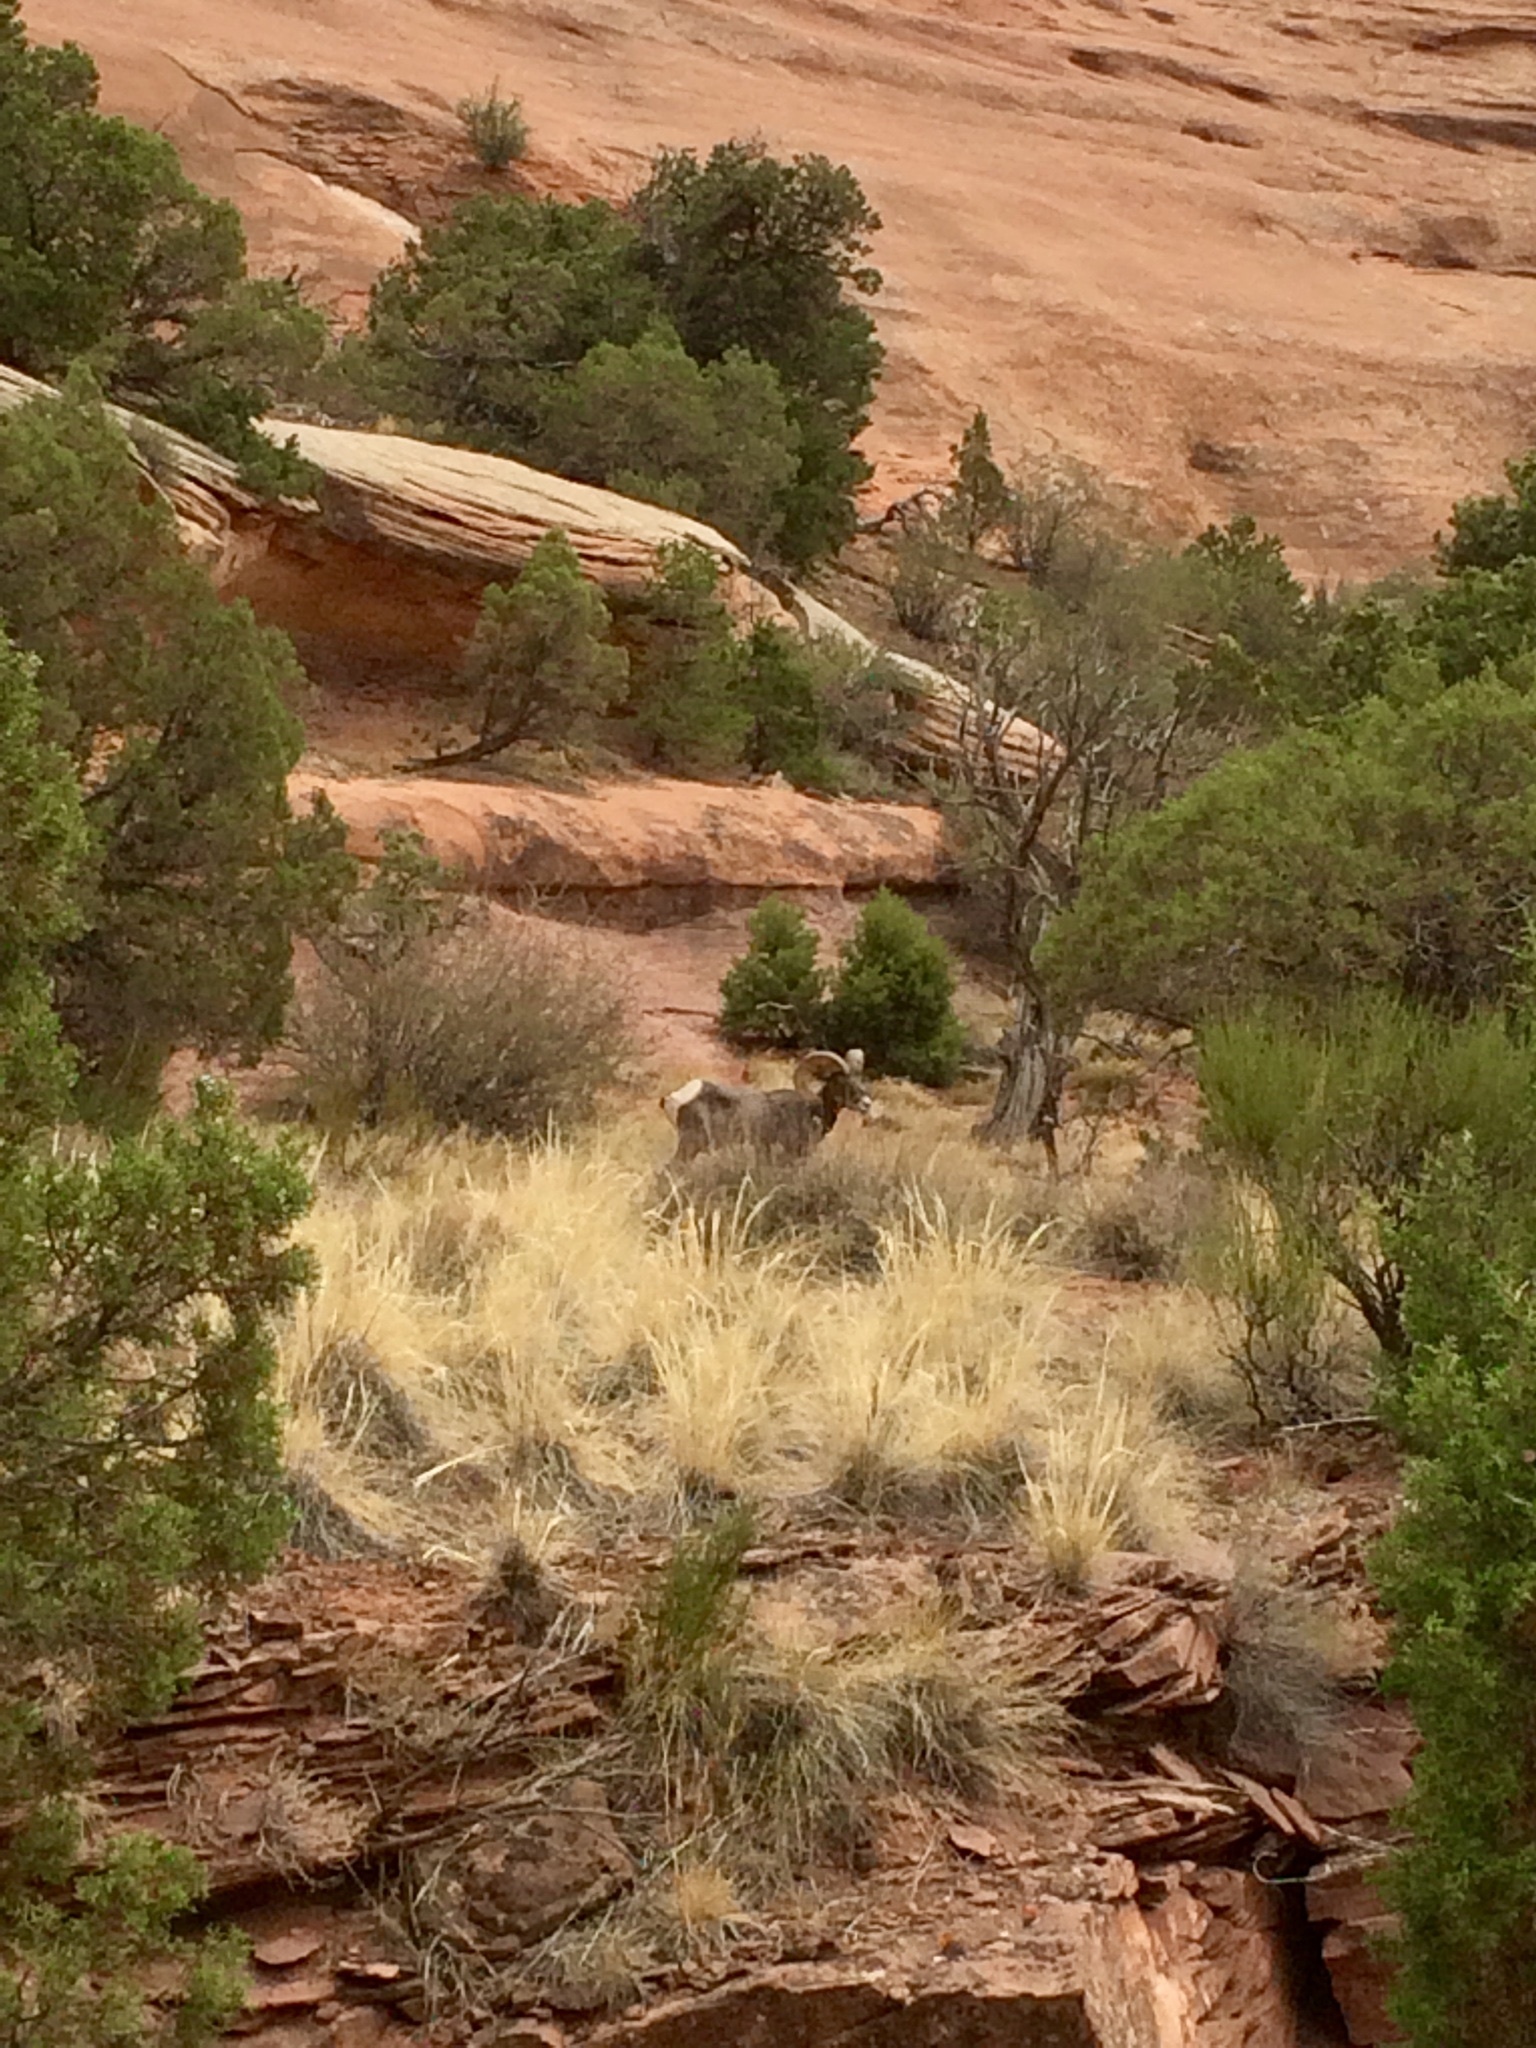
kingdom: Animalia
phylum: Chordata
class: Mammalia
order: Artiodactyla
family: Bovidae
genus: Ovis
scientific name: Ovis canadensis
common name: Bighorn sheep
